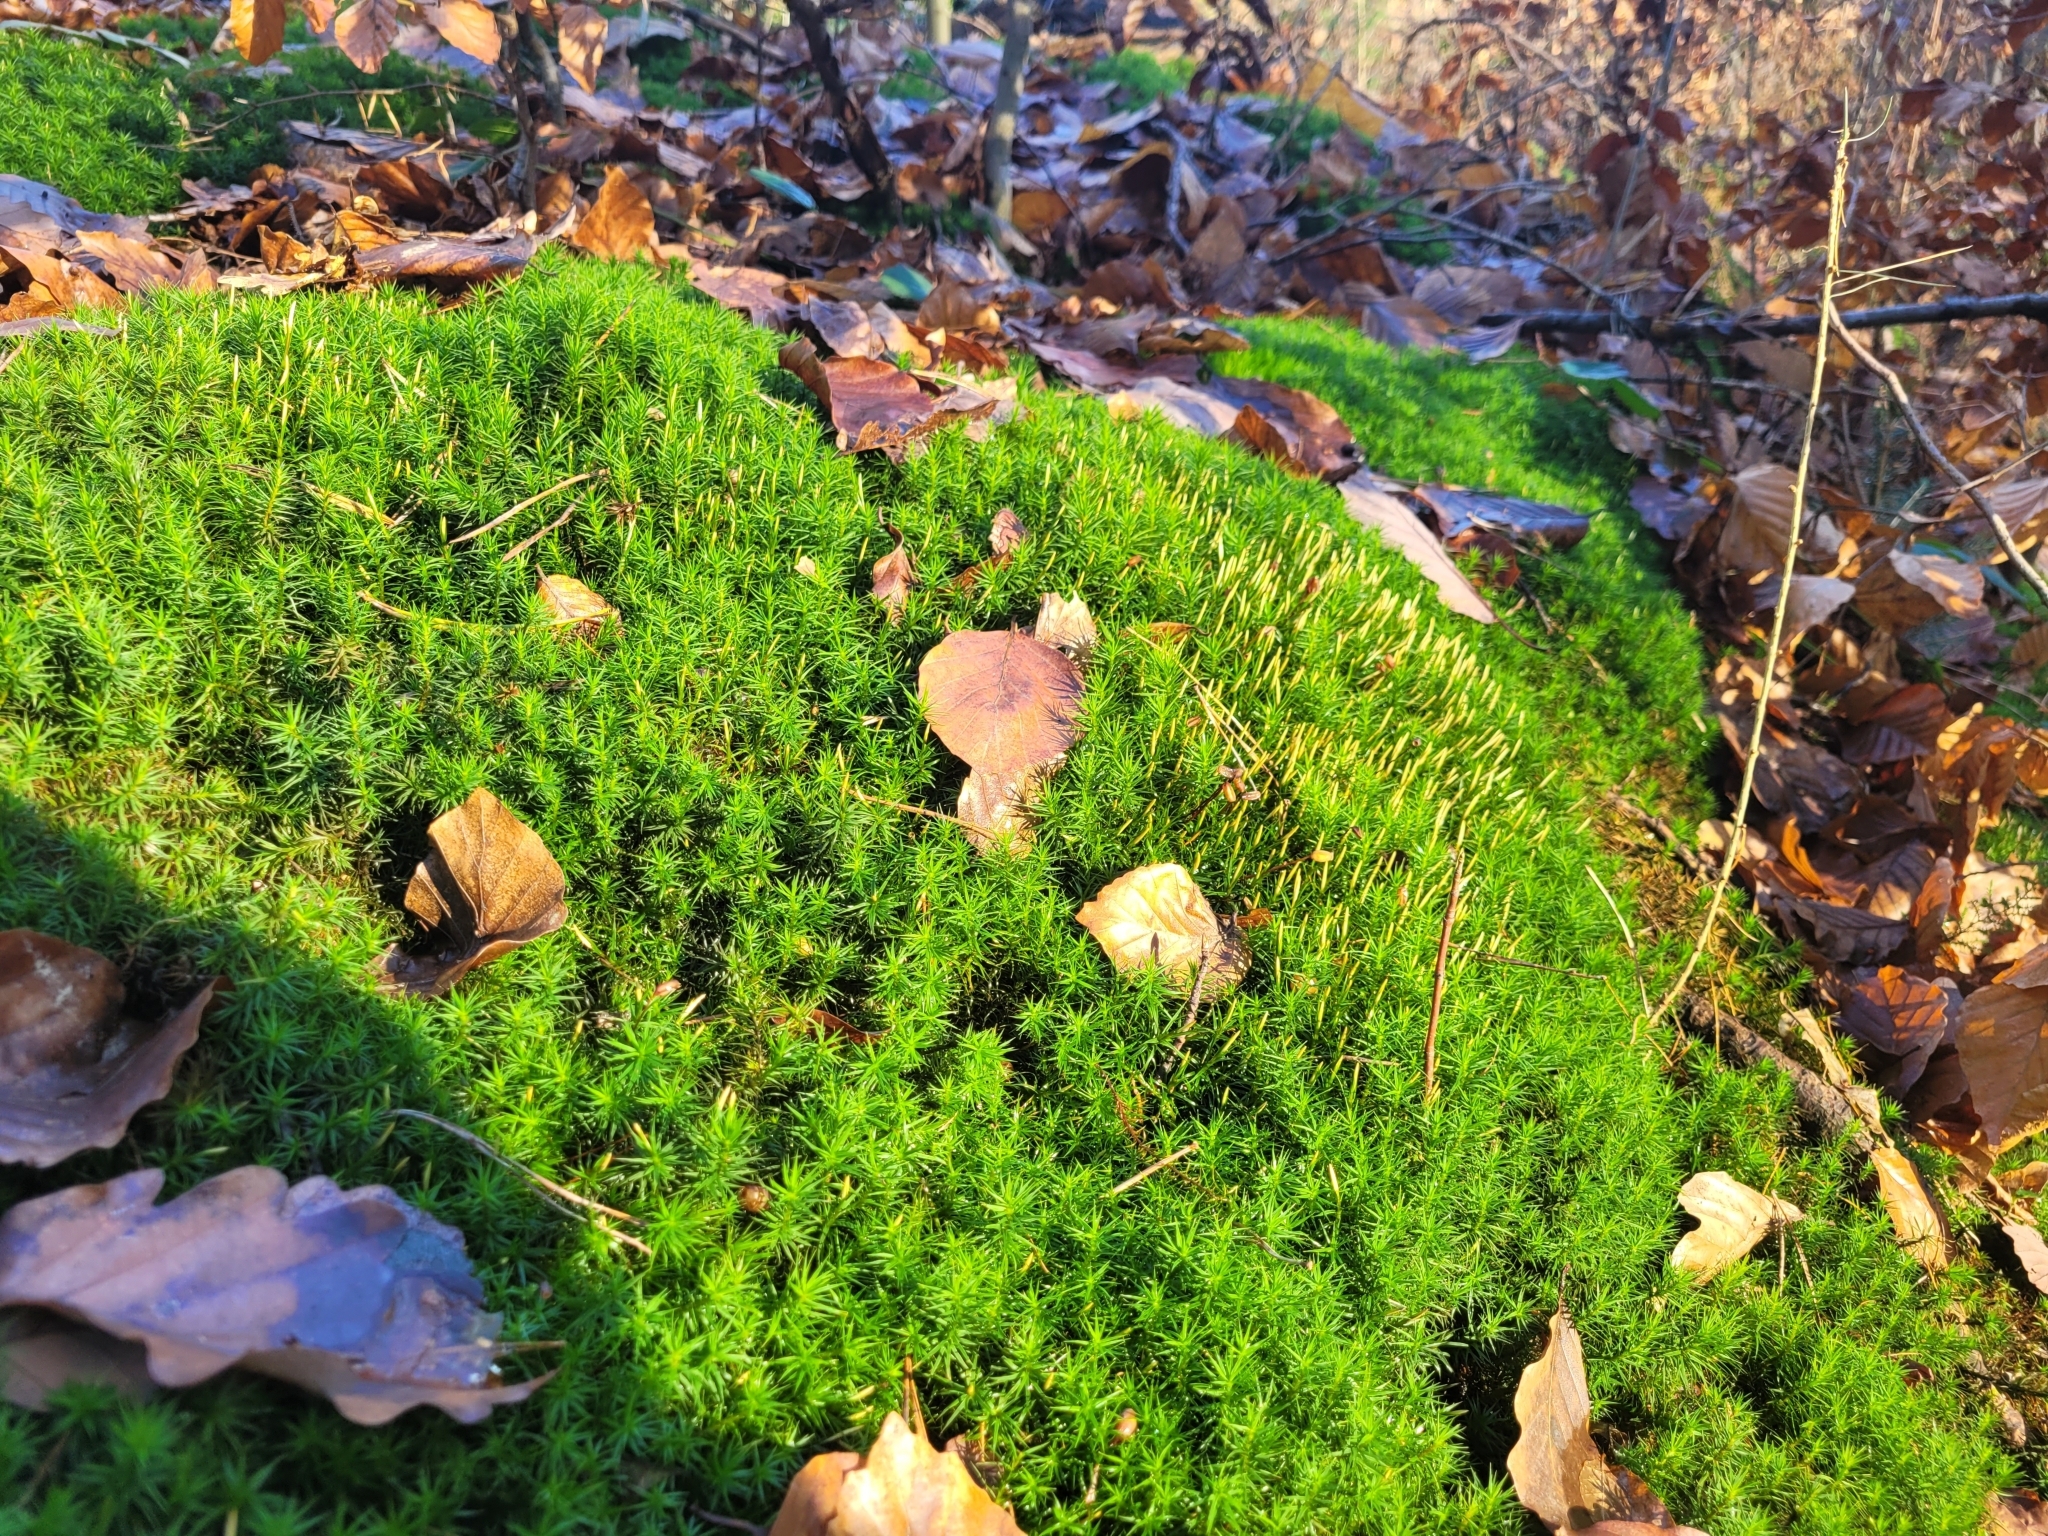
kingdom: Plantae
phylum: Bryophyta
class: Polytrichopsida
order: Polytrichales
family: Polytrichaceae
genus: Polytrichum
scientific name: Polytrichum formosum
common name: Bank haircap moss
